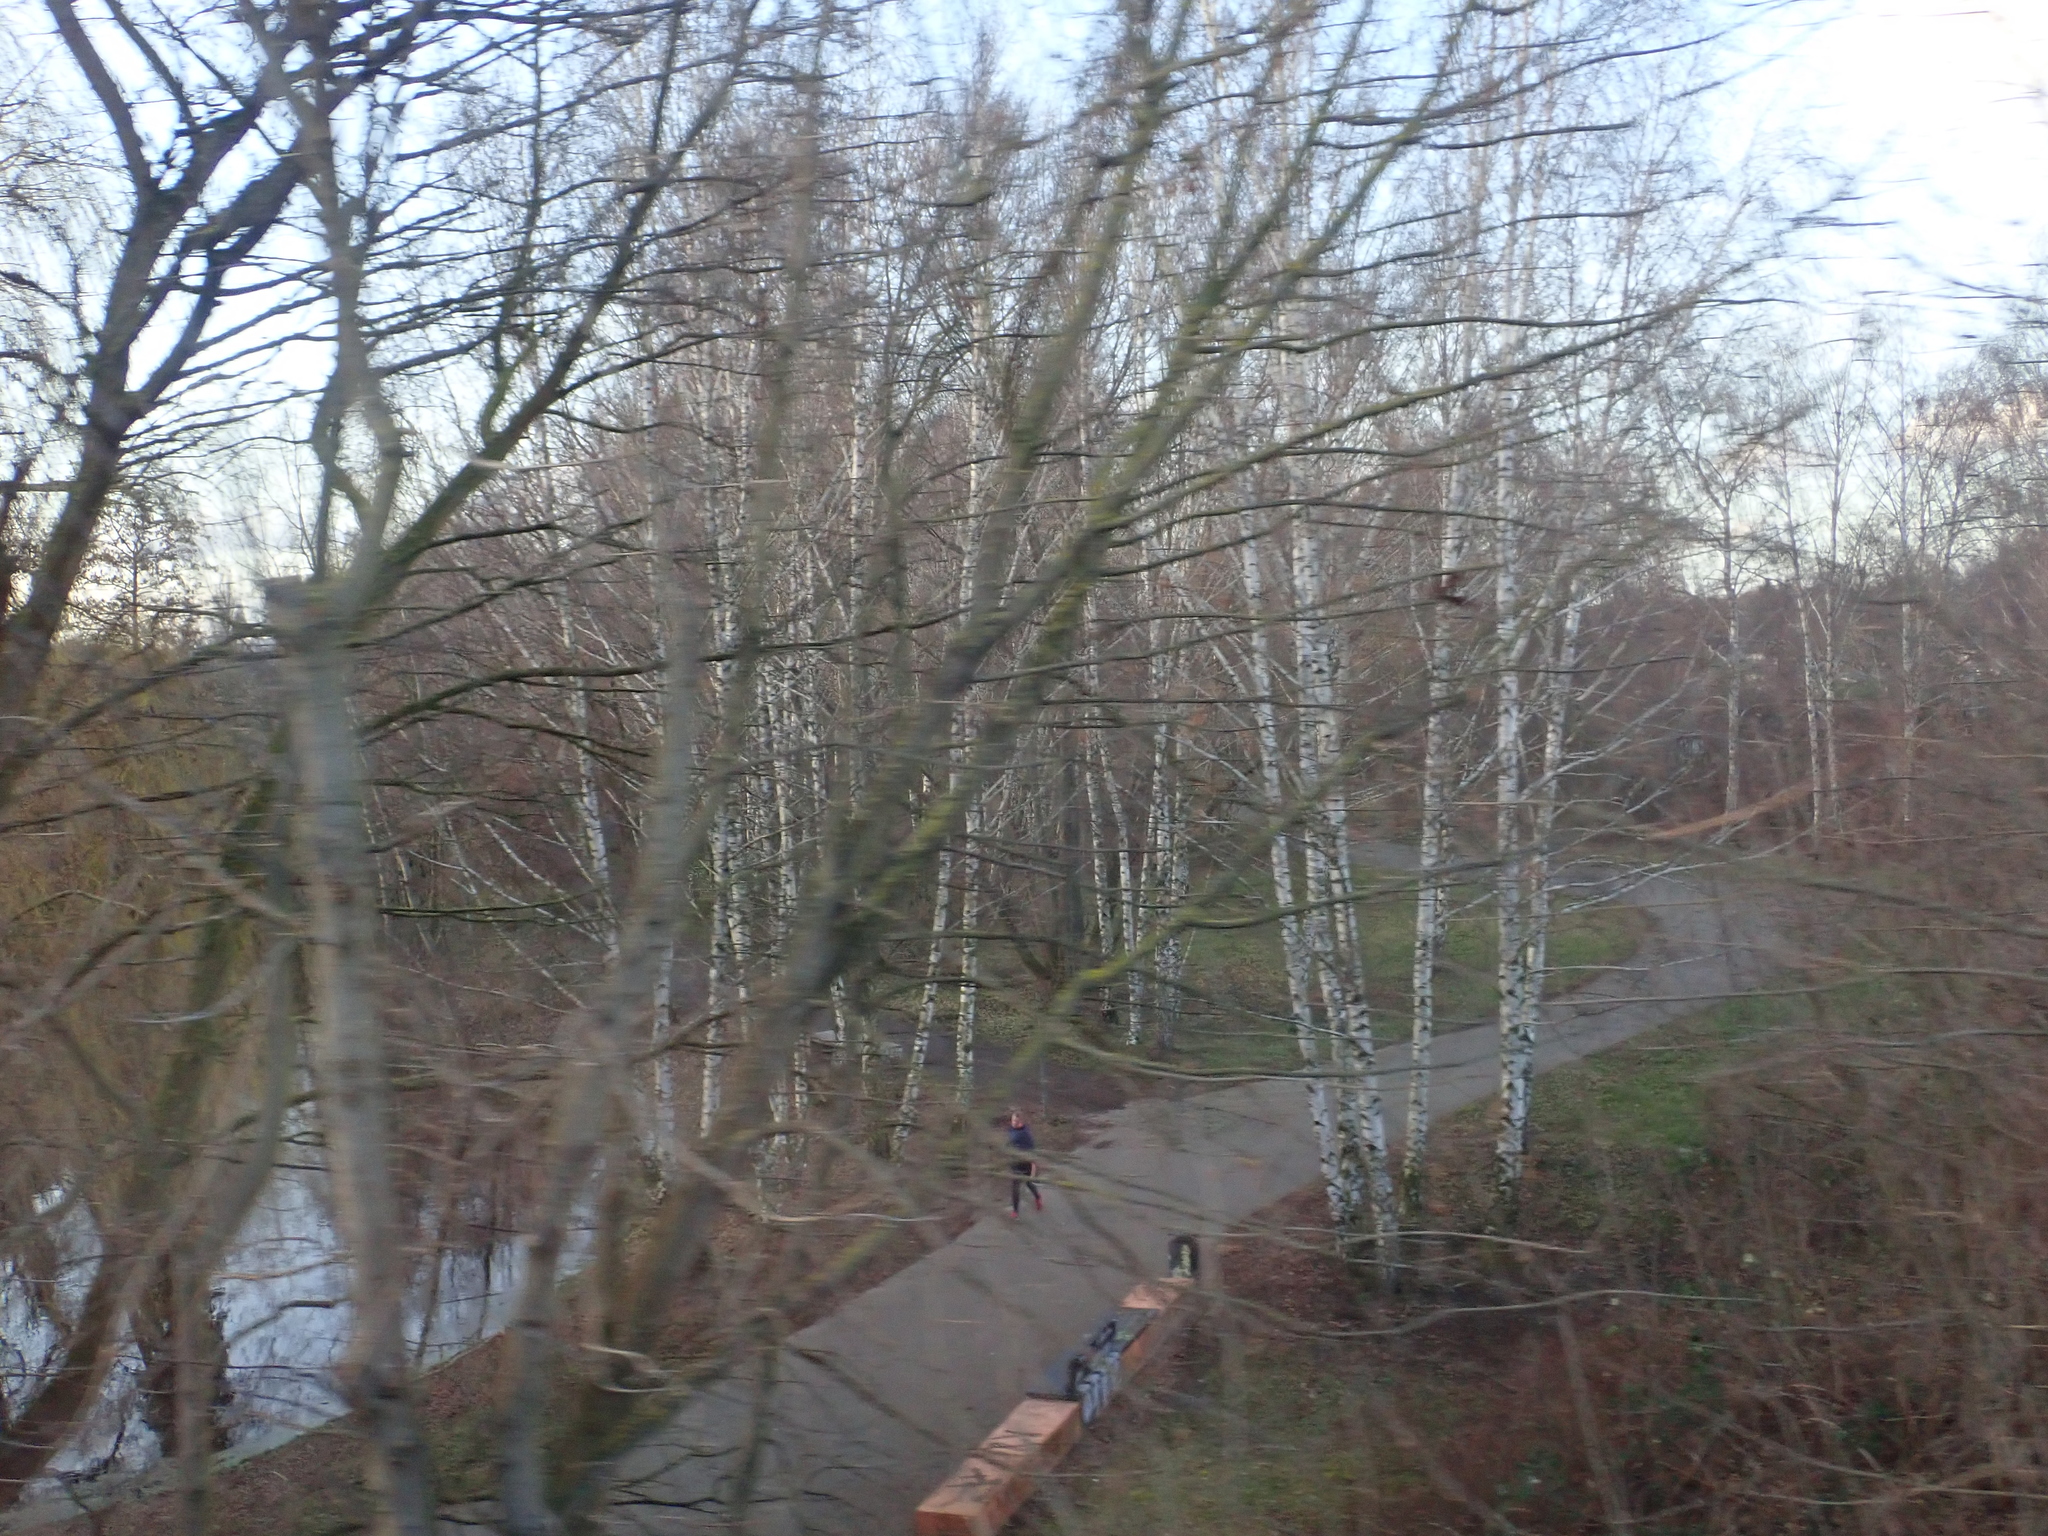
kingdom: Plantae
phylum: Tracheophyta
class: Magnoliopsida
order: Fagales
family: Betulaceae
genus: Betula
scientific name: Betula pendula
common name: Silver birch
